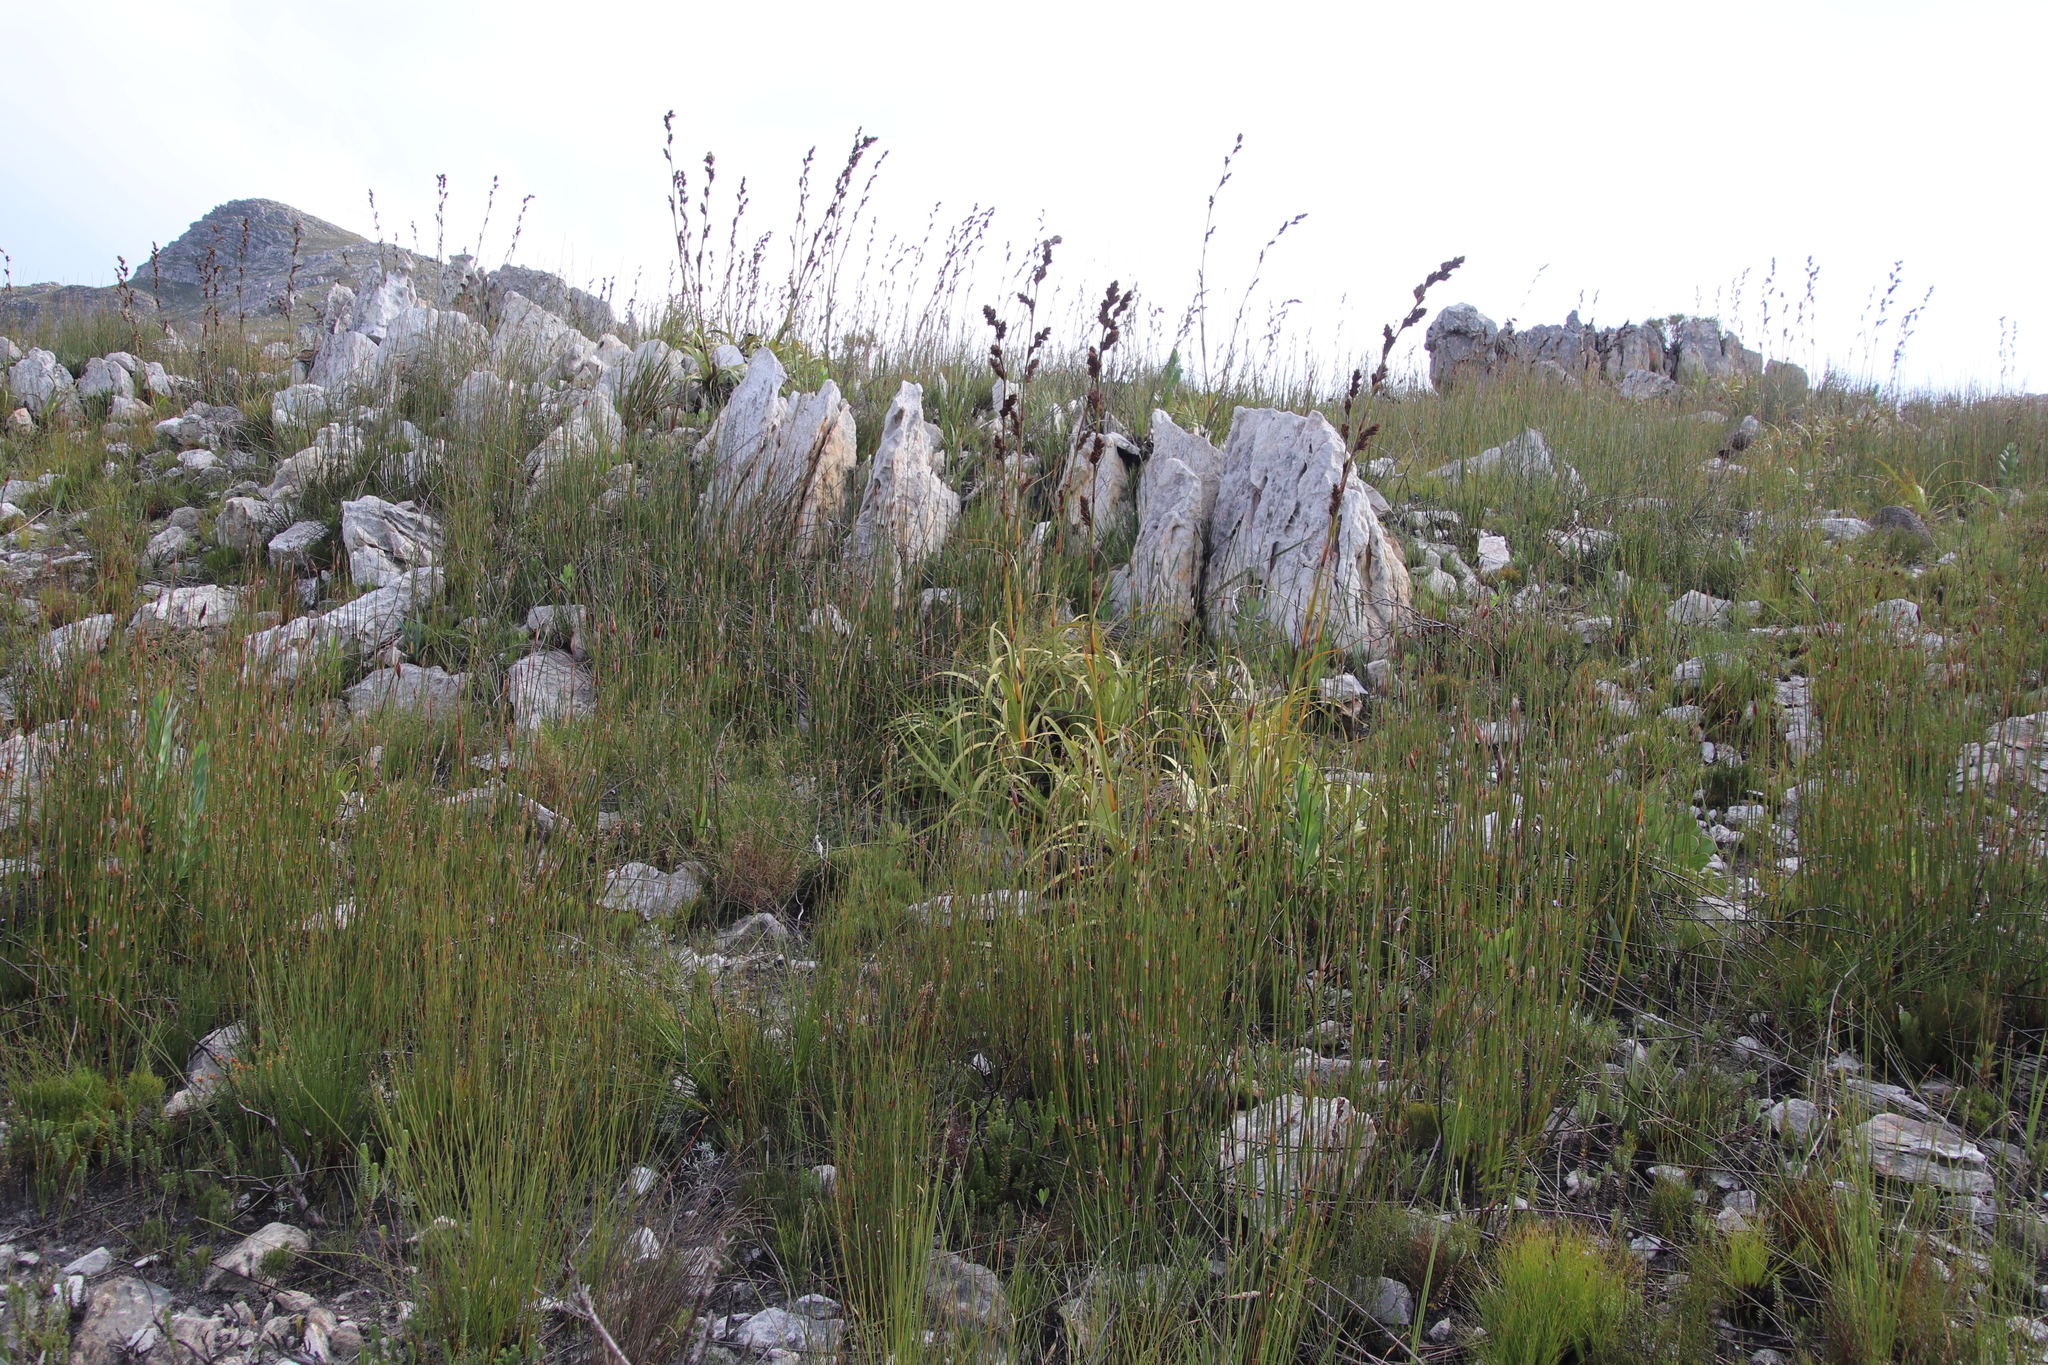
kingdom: Plantae
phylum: Tracheophyta
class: Liliopsida
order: Poales
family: Cyperaceae
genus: Tetraria
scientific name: Tetraria thermalis
